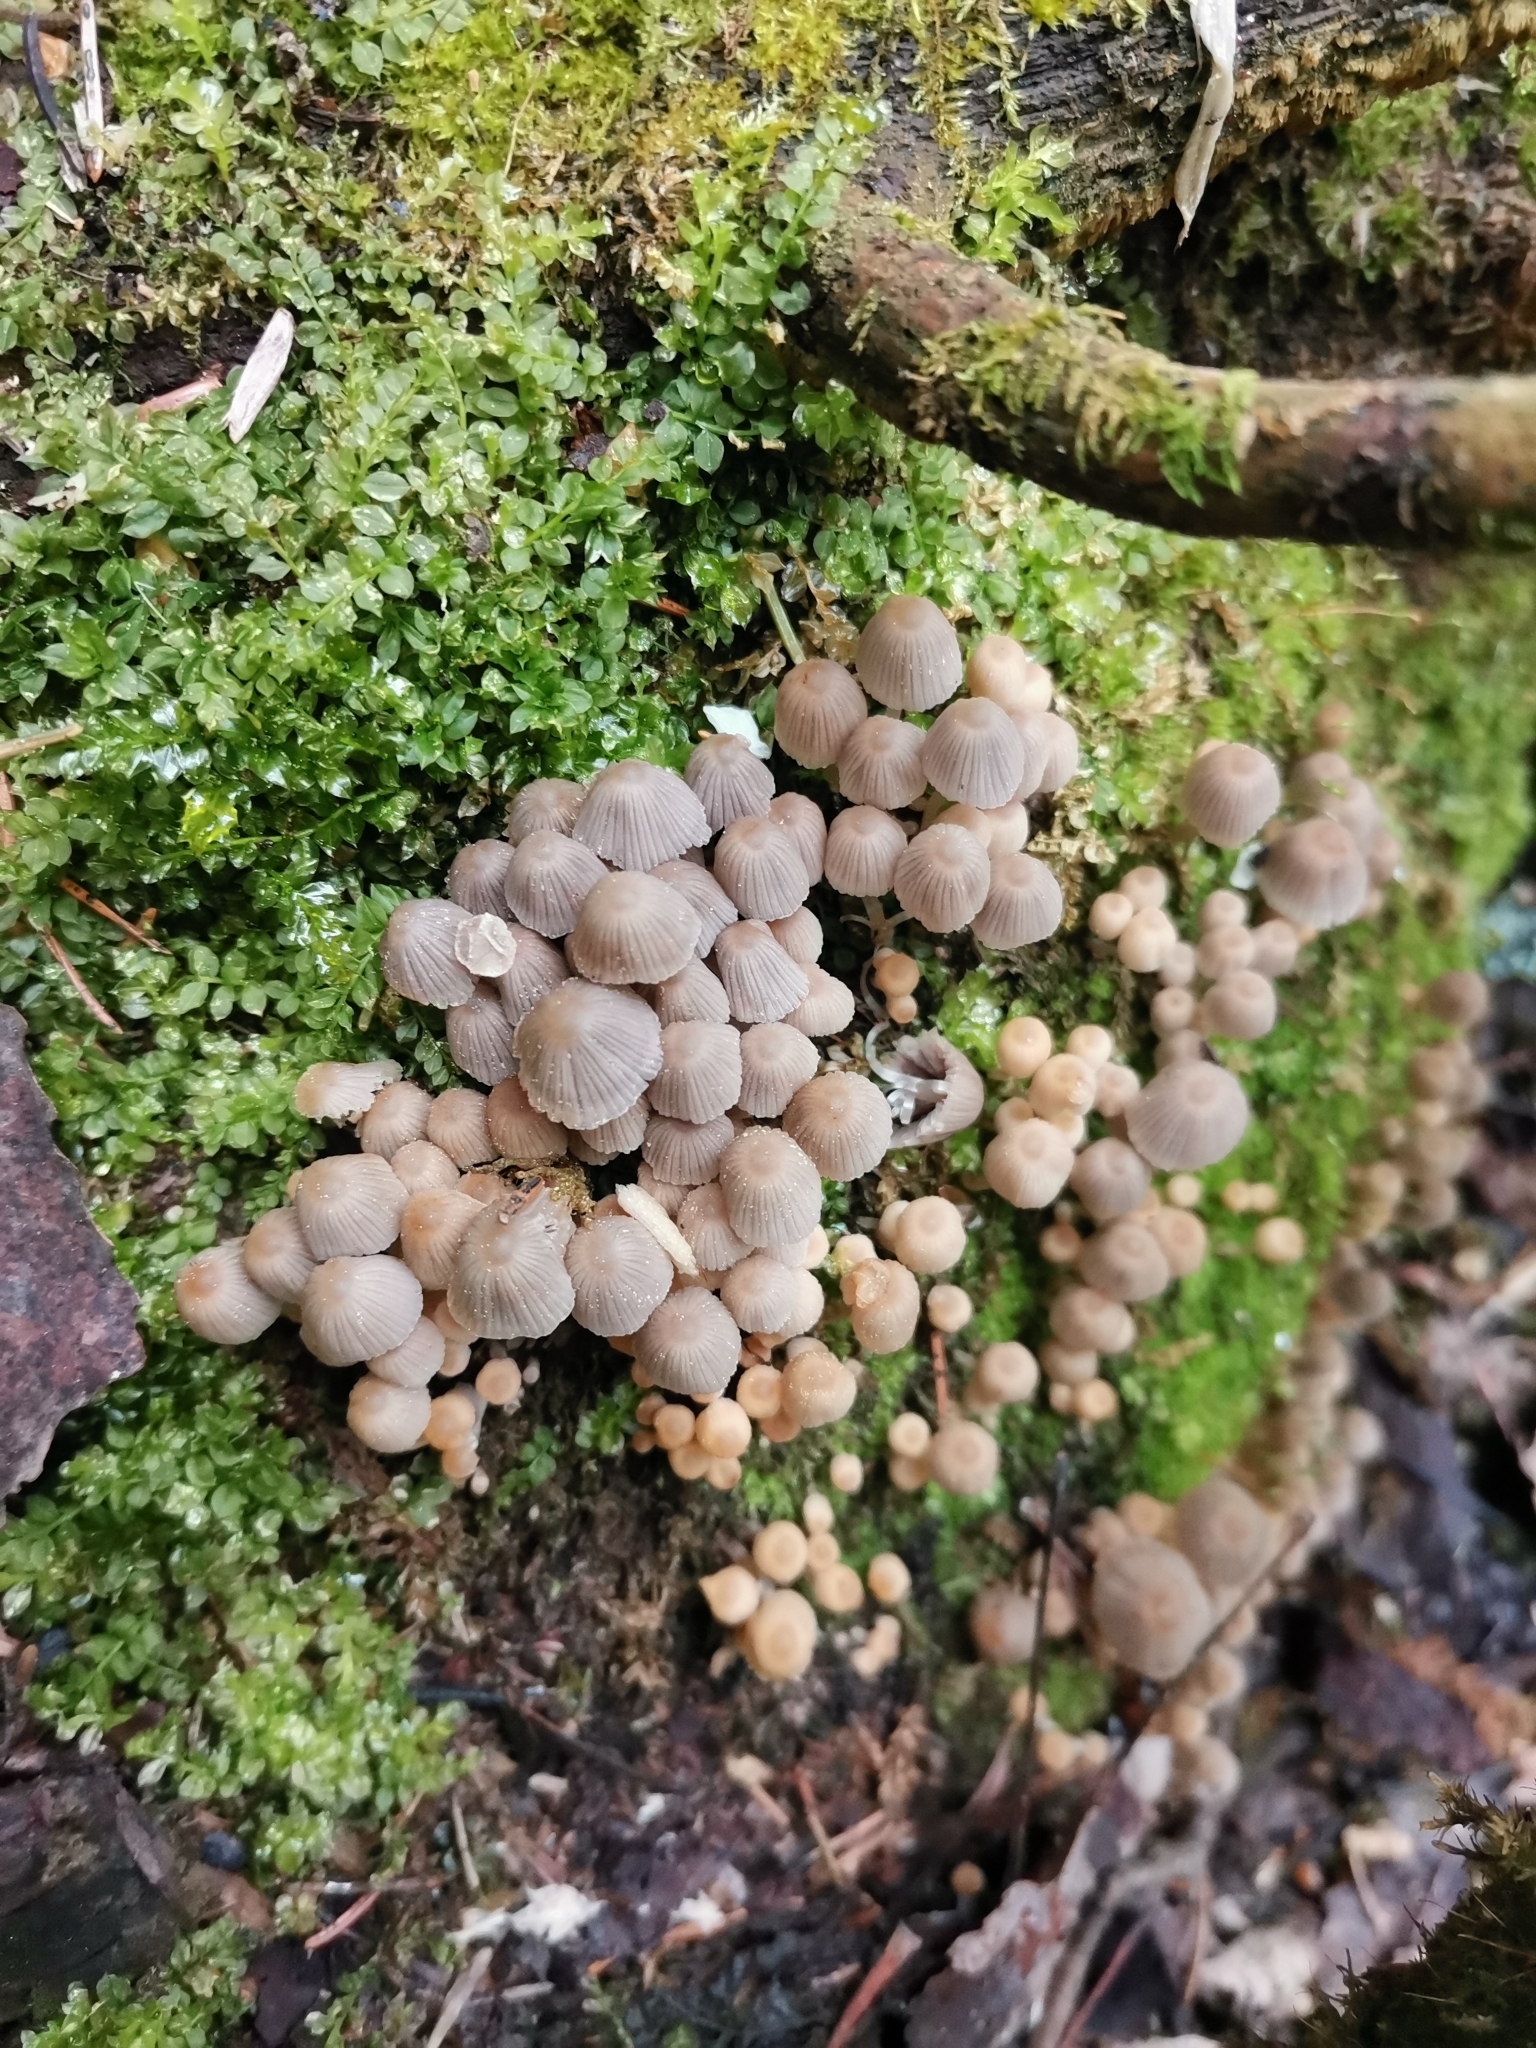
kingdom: Fungi
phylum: Basidiomycota
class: Agaricomycetes
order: Agaricales
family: Psathyrellaceae
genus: Coprinellus
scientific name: Coprinellus disseminatus
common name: Fairies' bonnets
